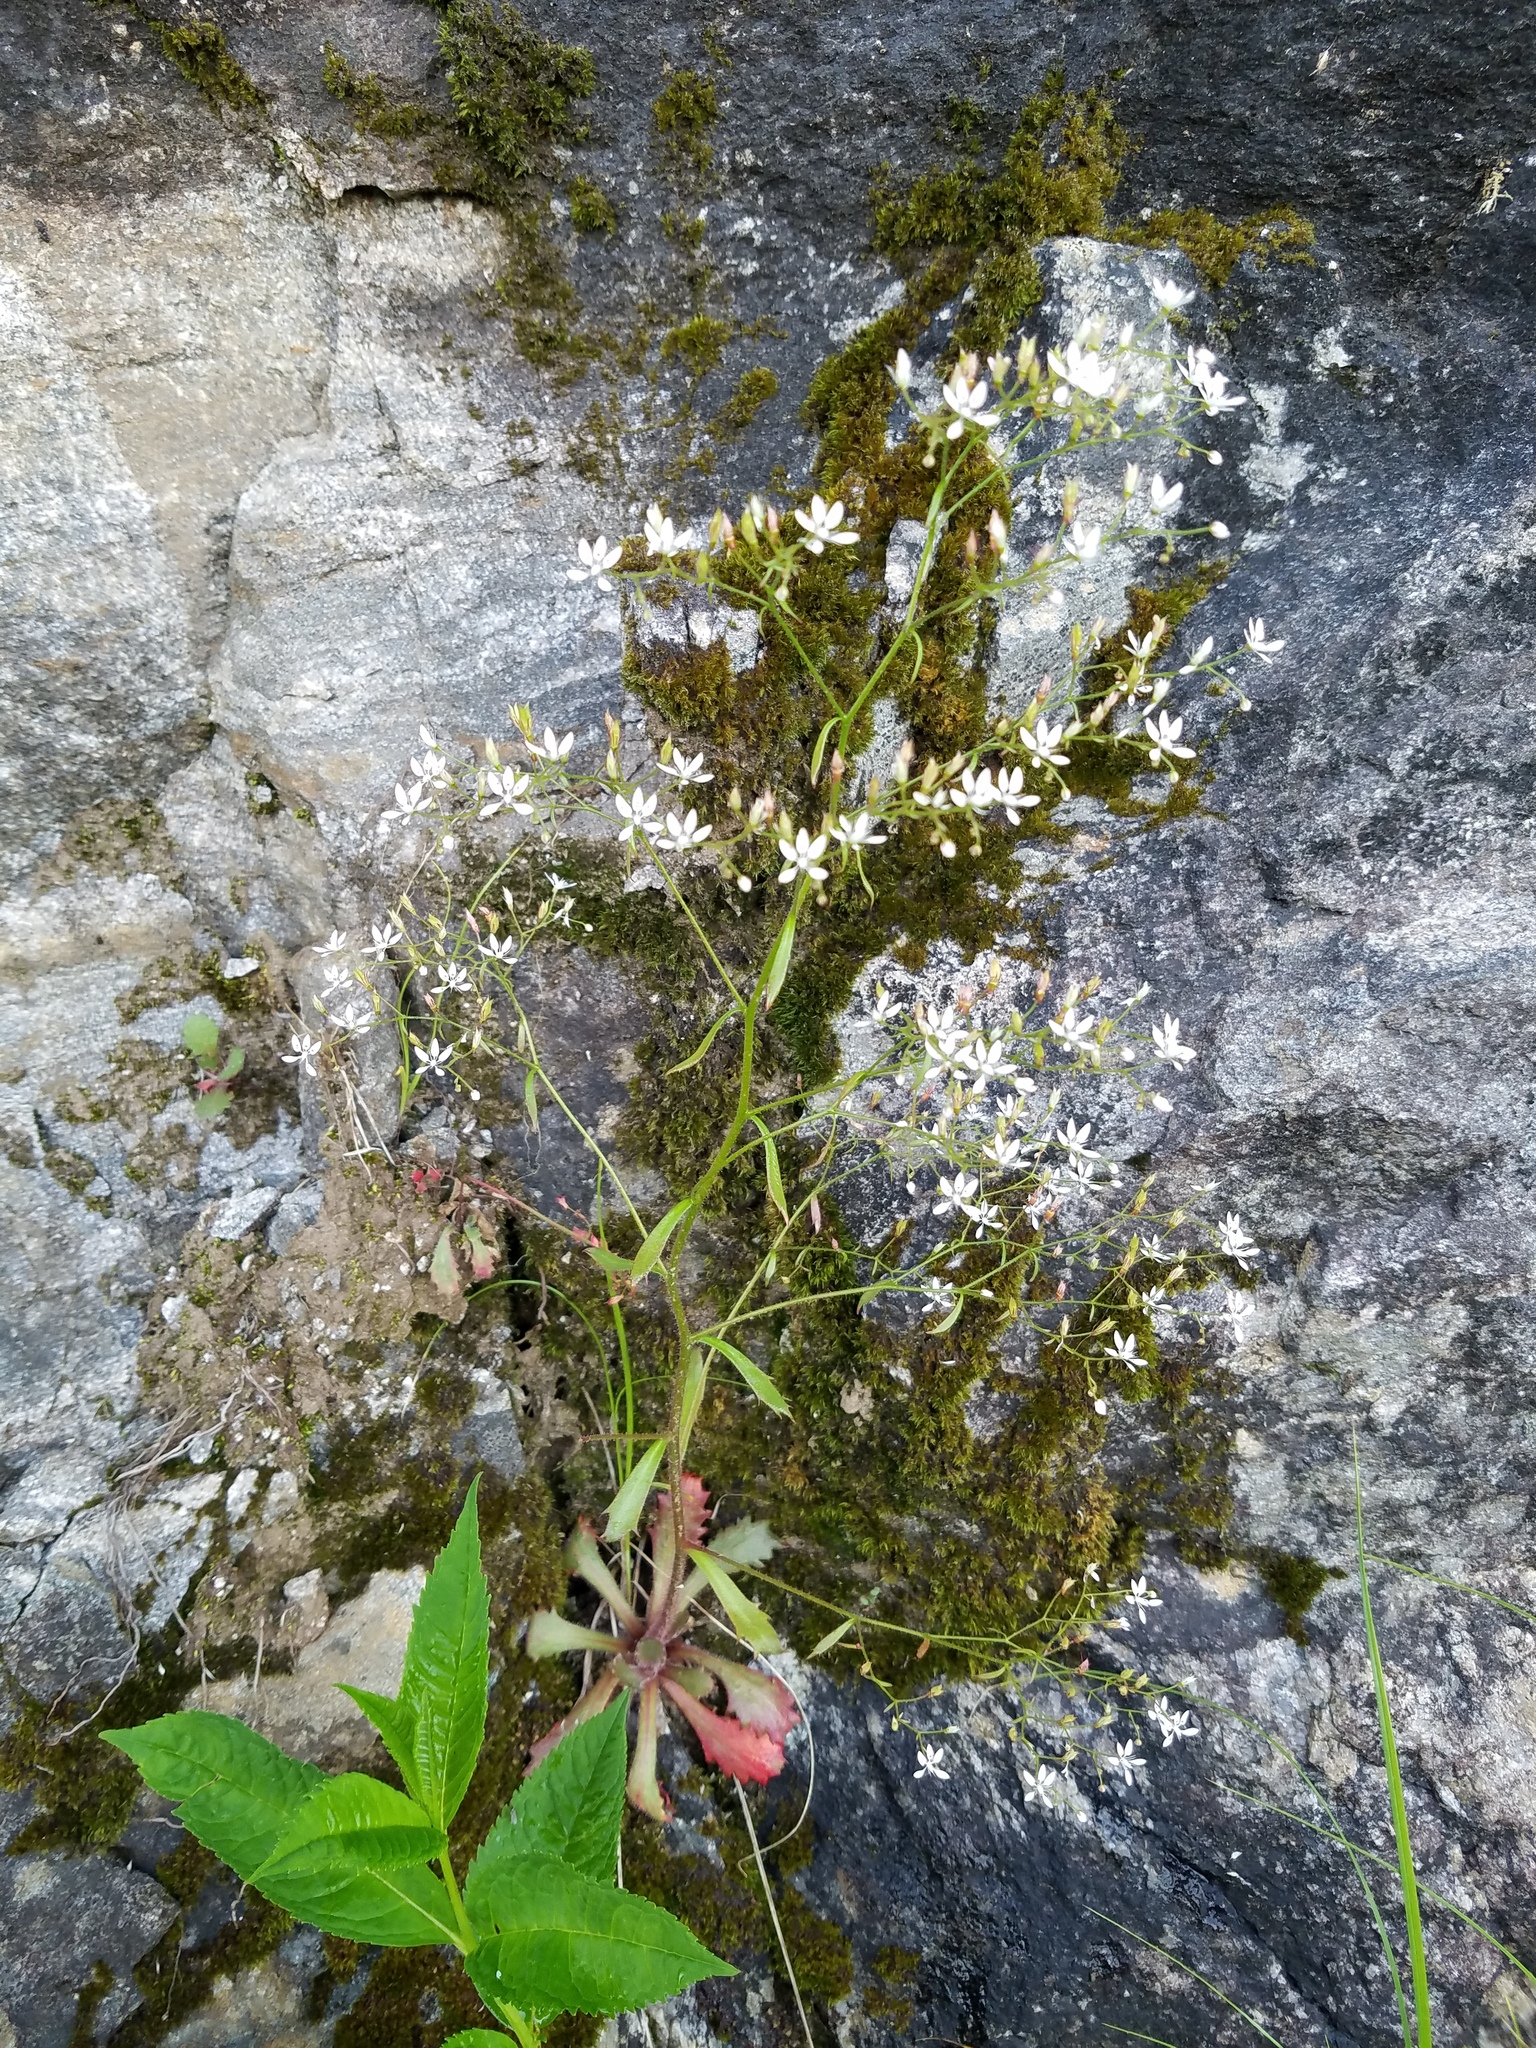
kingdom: Plantae
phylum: Tracheophyta
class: Magnoliopsida
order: Saxifragales
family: Saxifragaceae
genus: Micranthes
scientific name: Micranthes petiolaris
